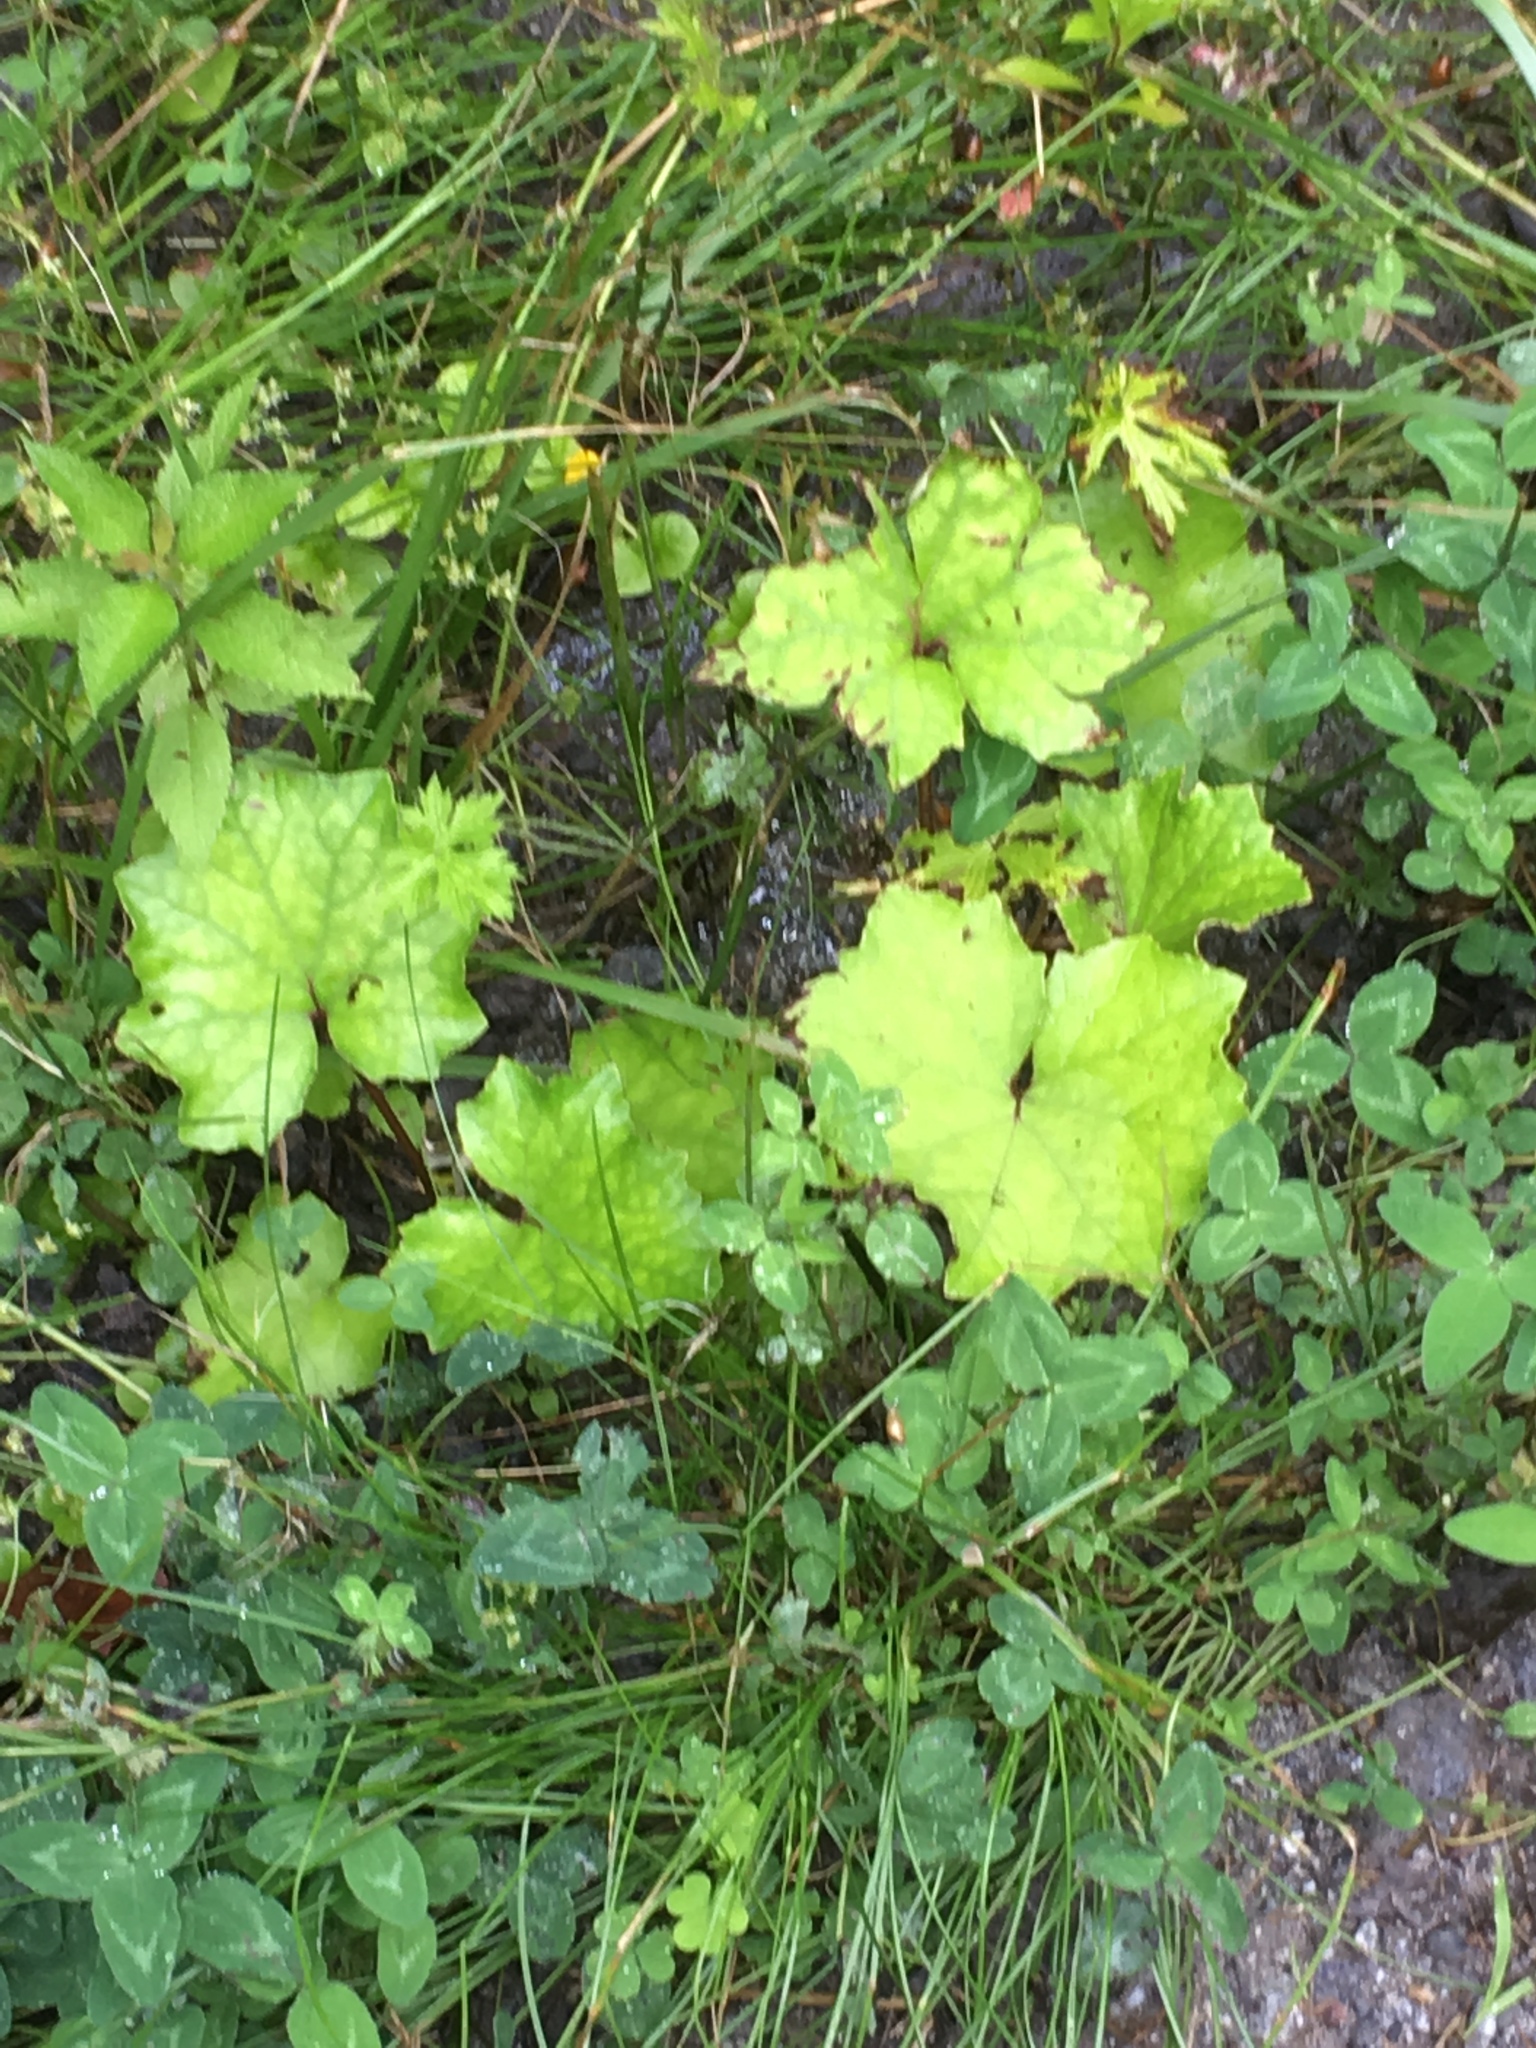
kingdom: Plantae
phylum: Tracheophyta
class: Magnoliopsida
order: Asterales
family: Asteraceae
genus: Tussilago
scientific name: Tussilago farfara
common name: Coltsfoot
